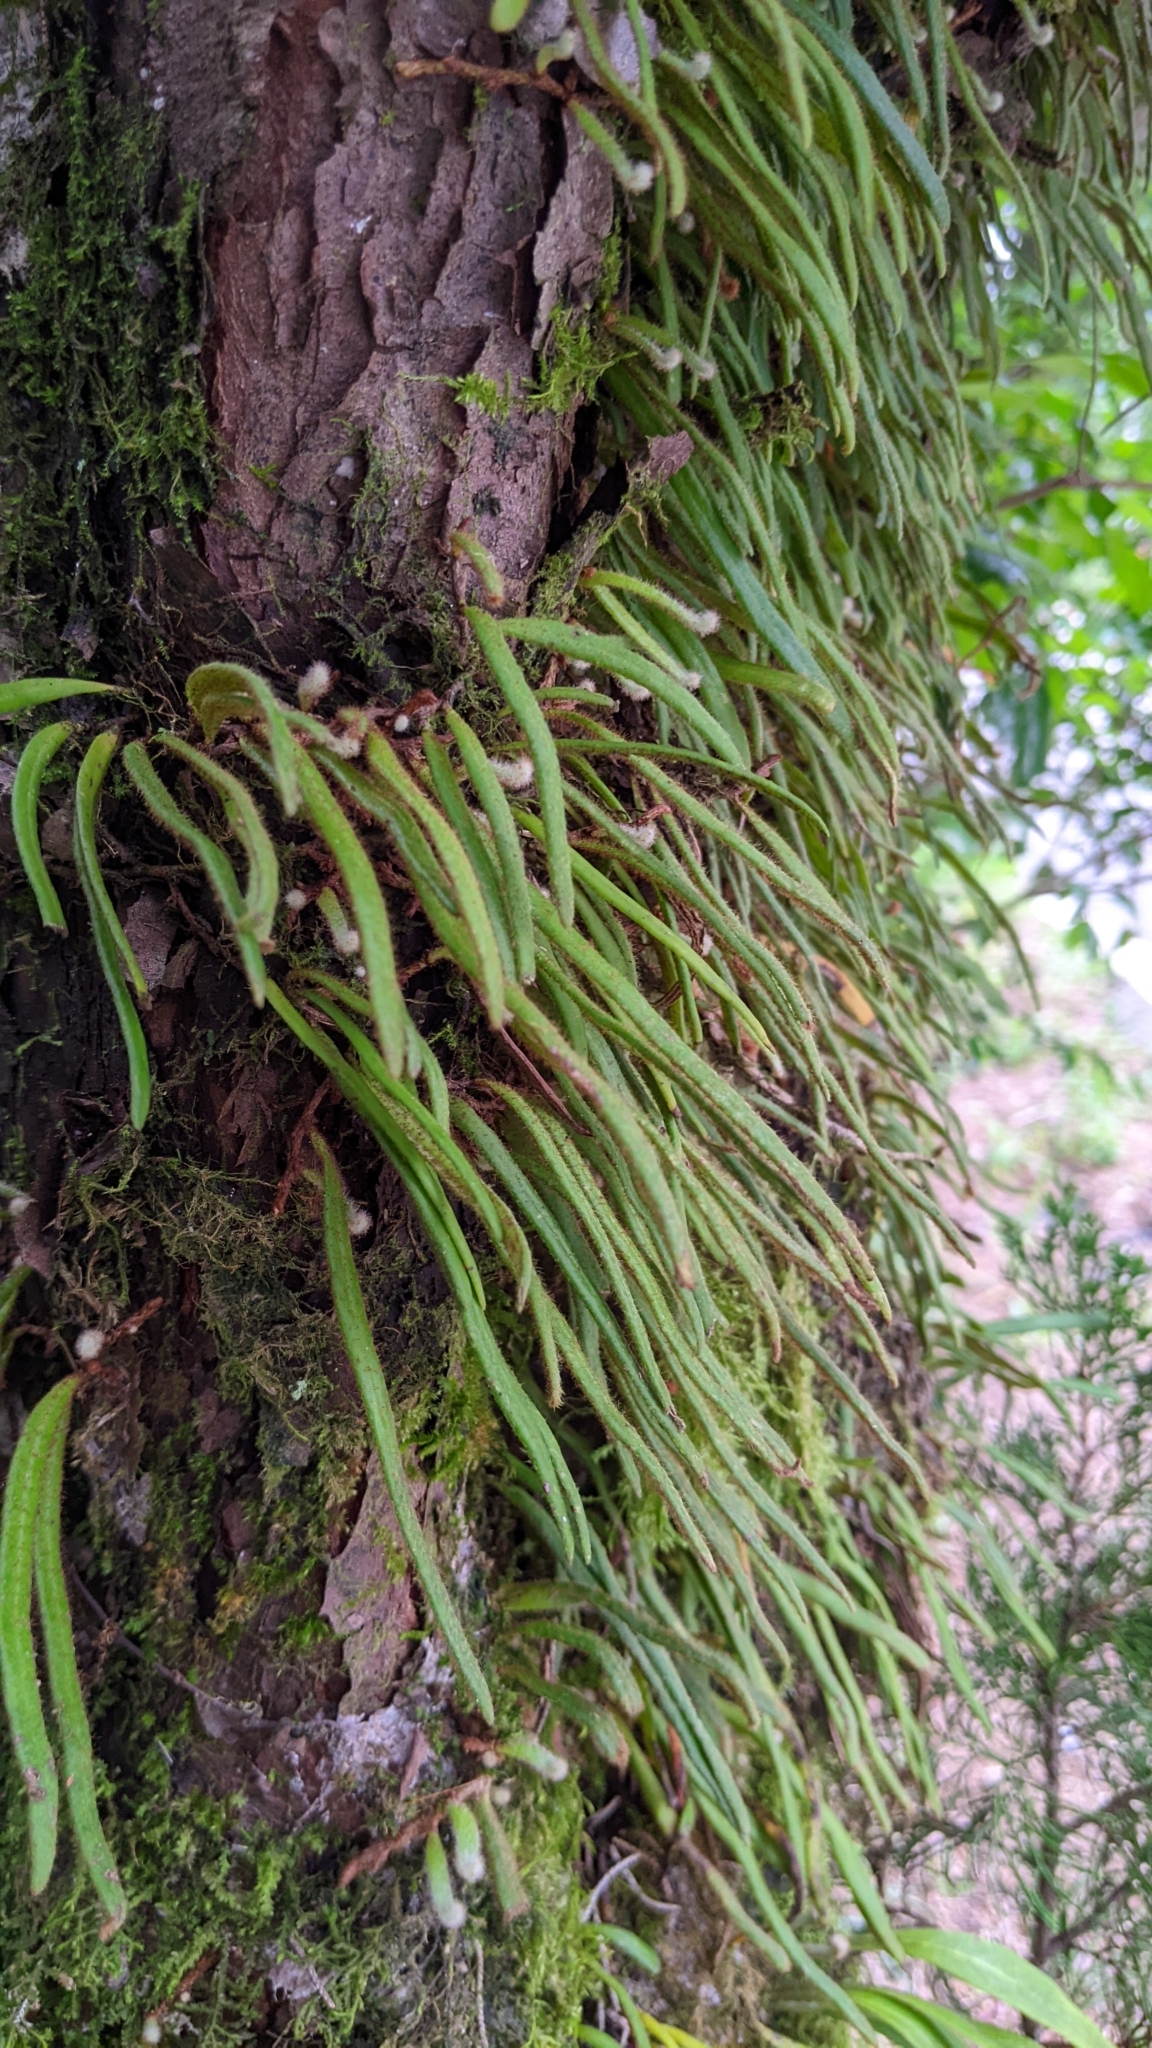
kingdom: Plantae
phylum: Tracheophyta
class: Polypodiopsida
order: Polypodiales
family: Polypodiaceae
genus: Pyrrosia
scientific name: Pyrrosia linearifolia
